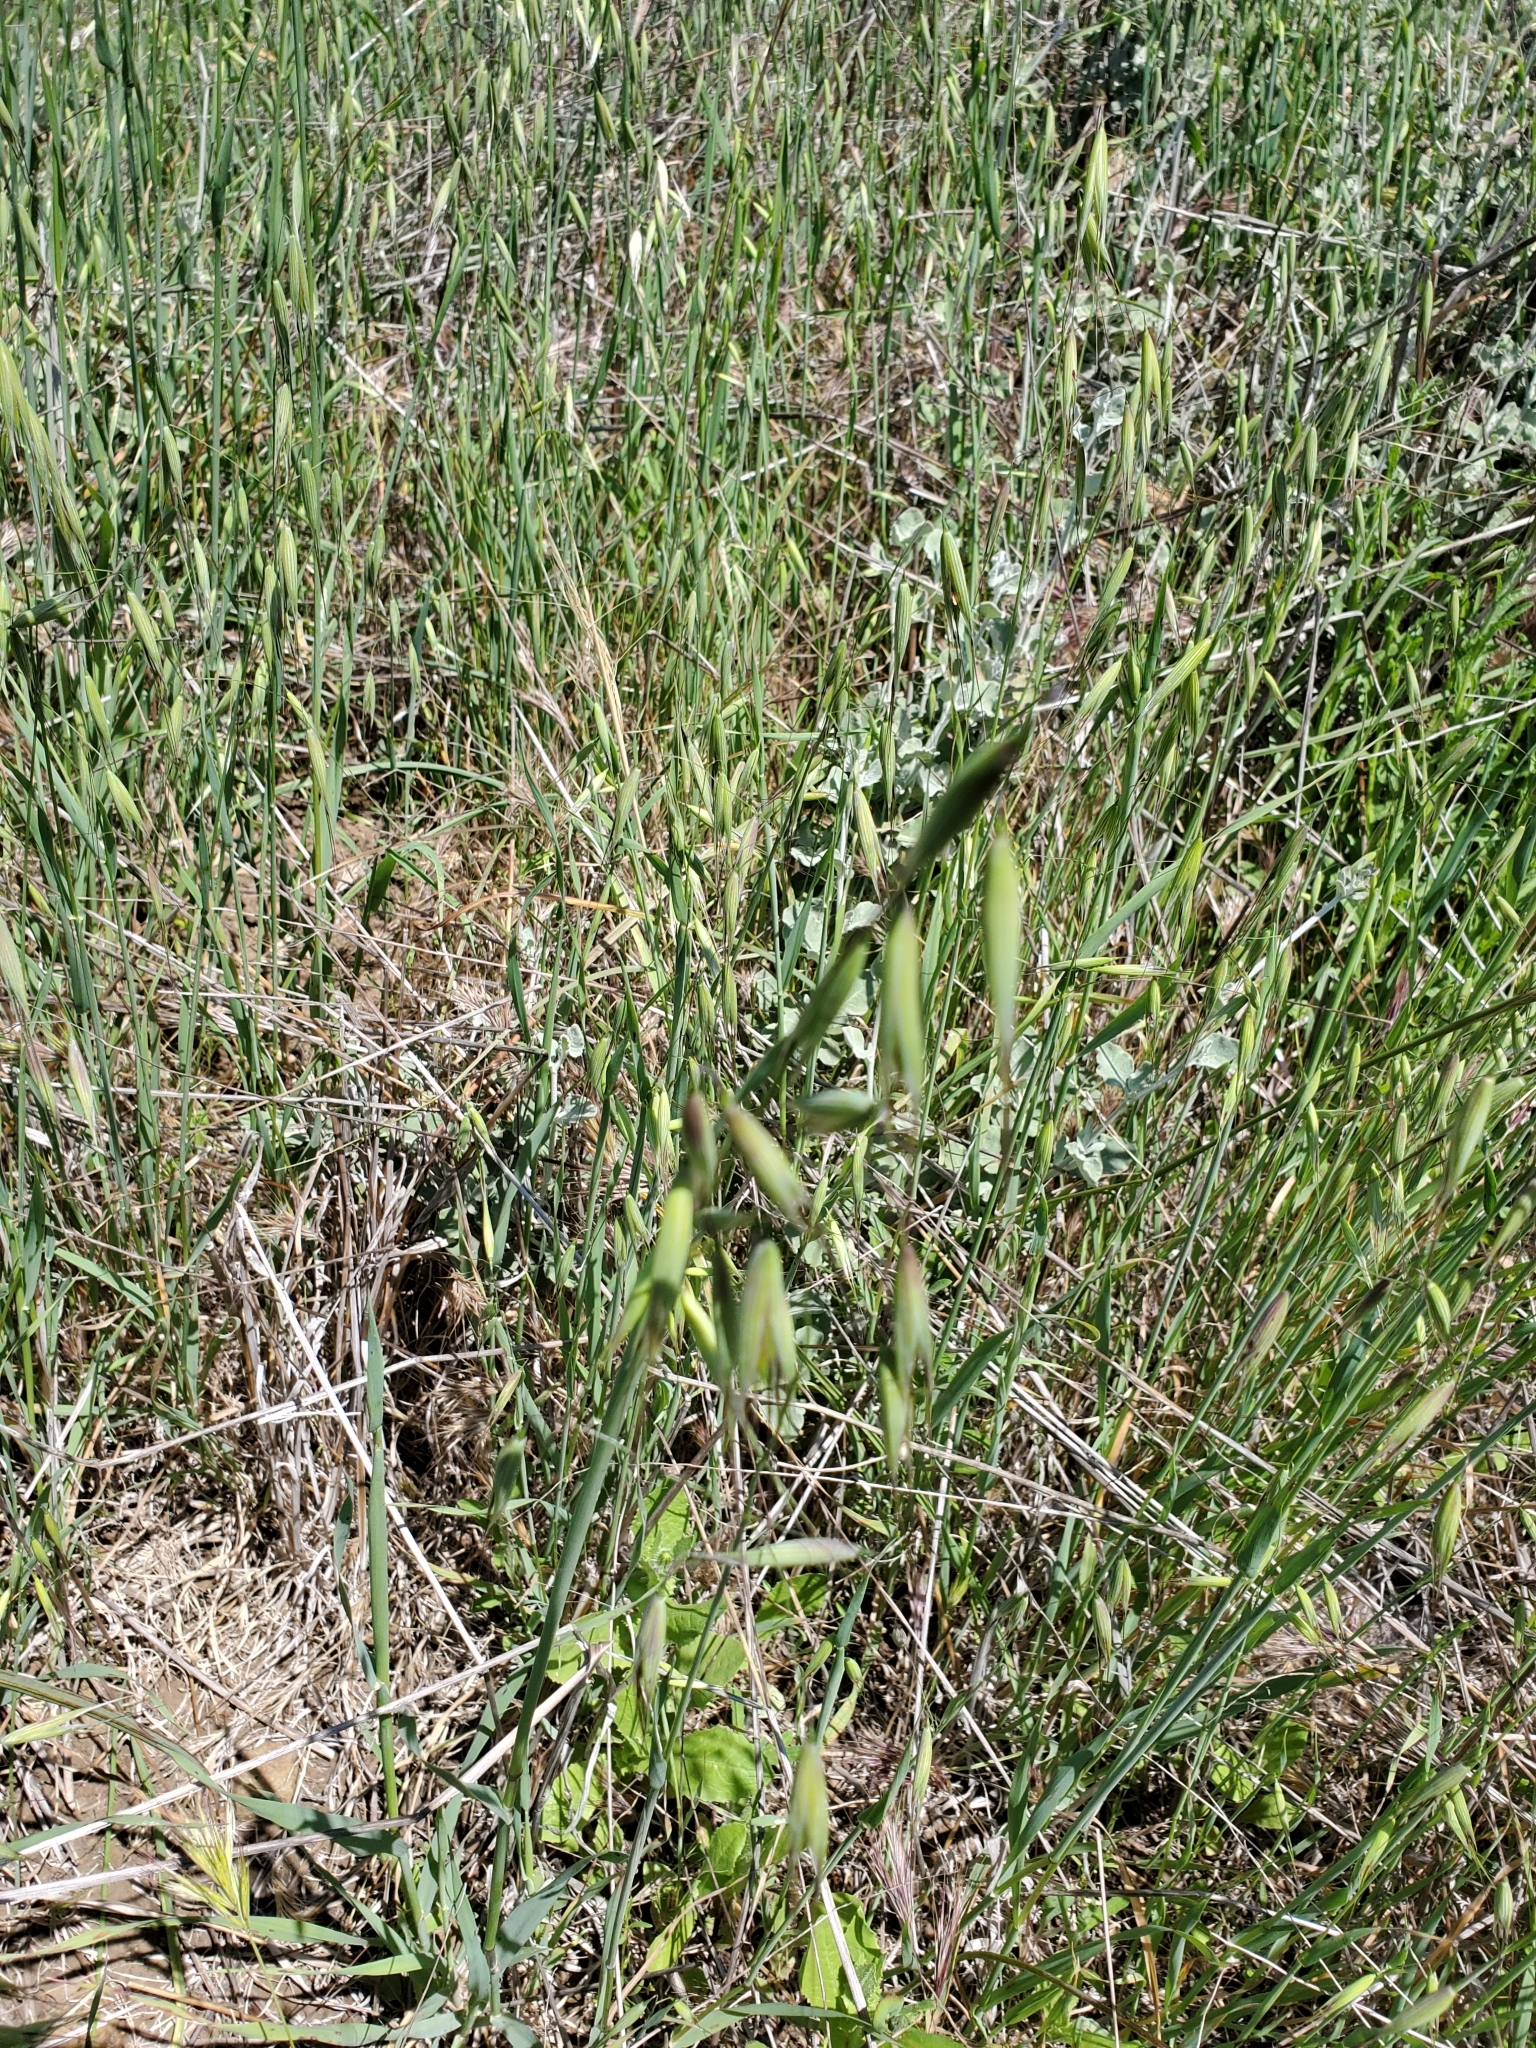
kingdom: Plantae
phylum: Tracheophyta
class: Liliopsida
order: Poales
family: Poaceae
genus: Avena
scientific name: Avena fatua
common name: Wild oat
